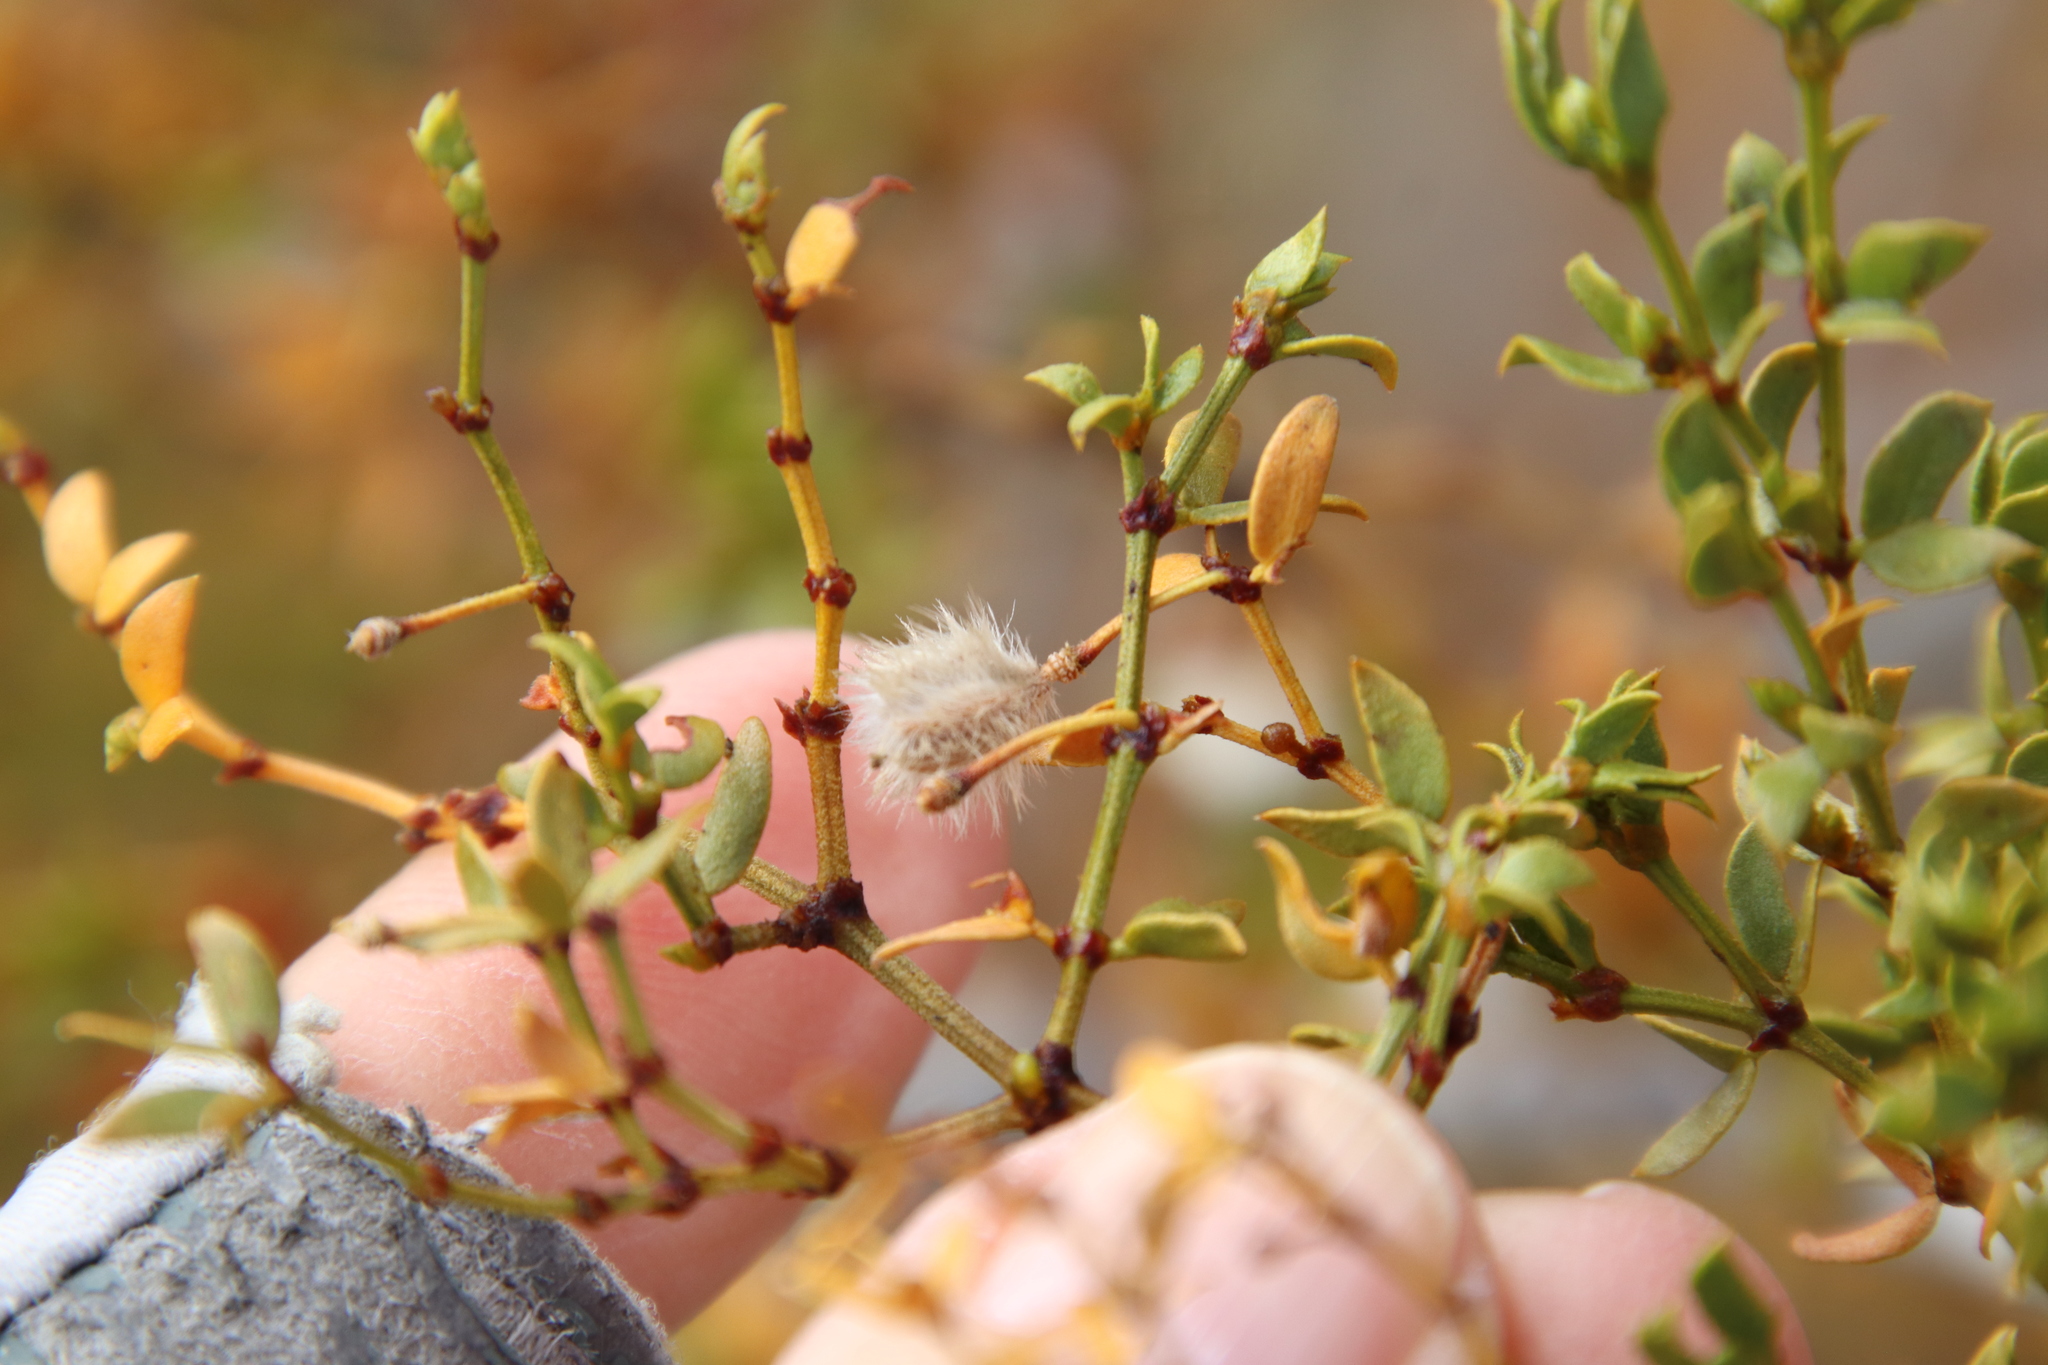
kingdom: Plantae
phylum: Tracheophyta
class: Magnoliopsida
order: Zygophyllales
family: Zygophyllaceae
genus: Larrea
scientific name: Larrea tridentata
